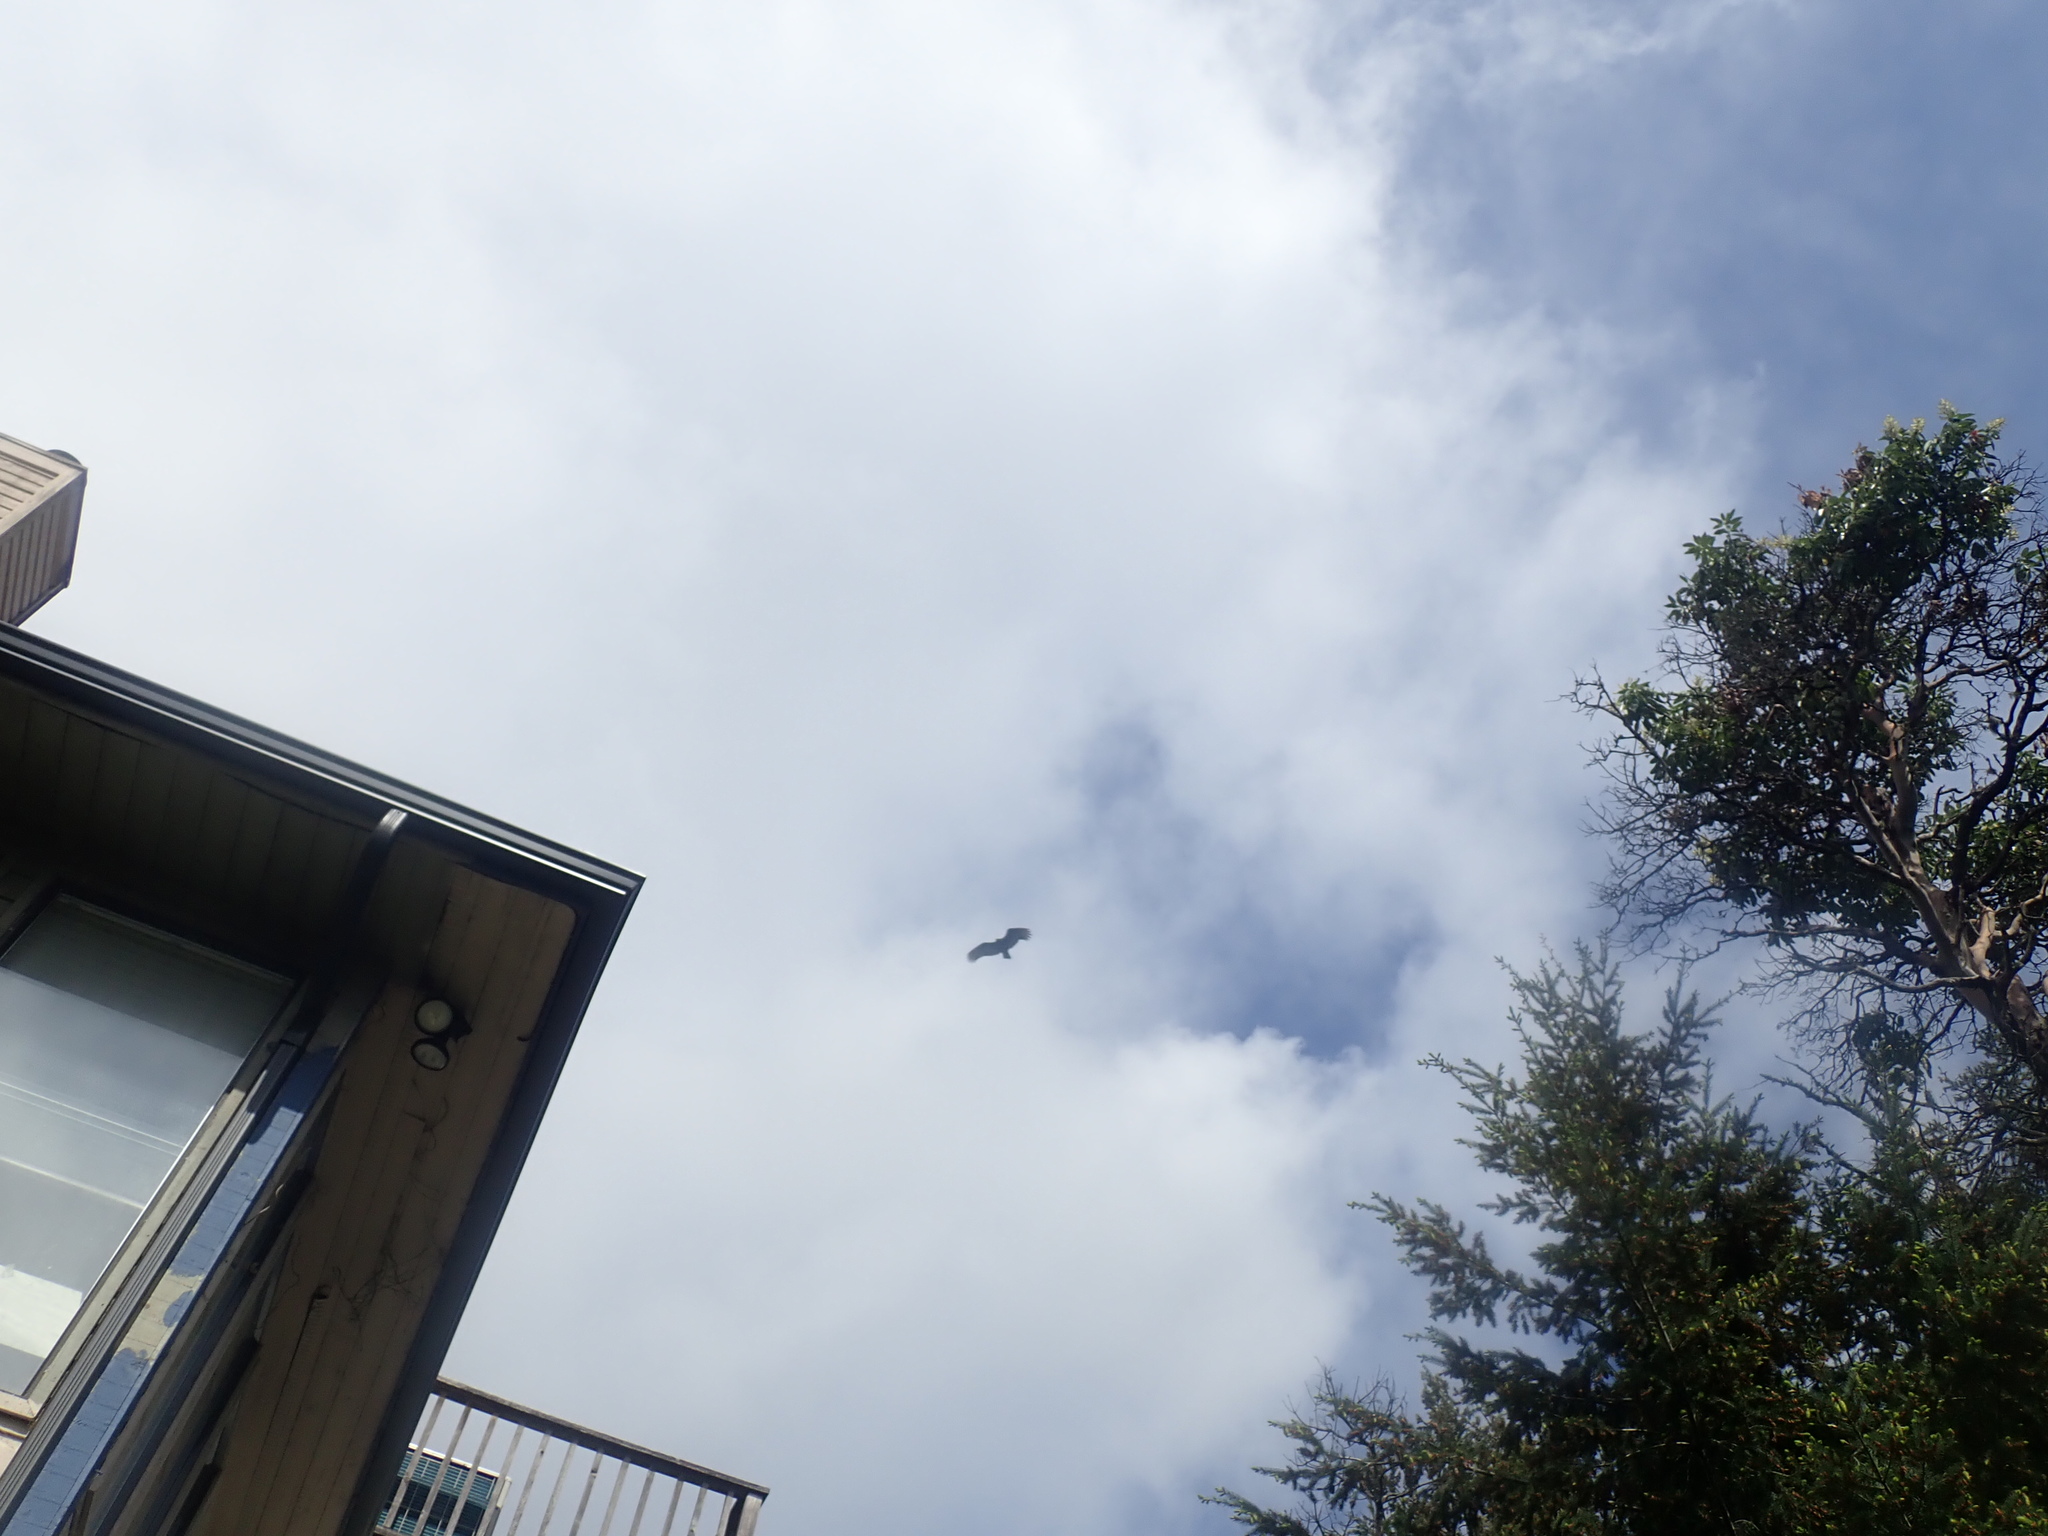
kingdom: Animalia
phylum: Chordata
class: Aves
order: Accipitriformes
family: Cathartidae
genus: Cathartes
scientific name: Cathartes aura
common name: Turkey vulture
